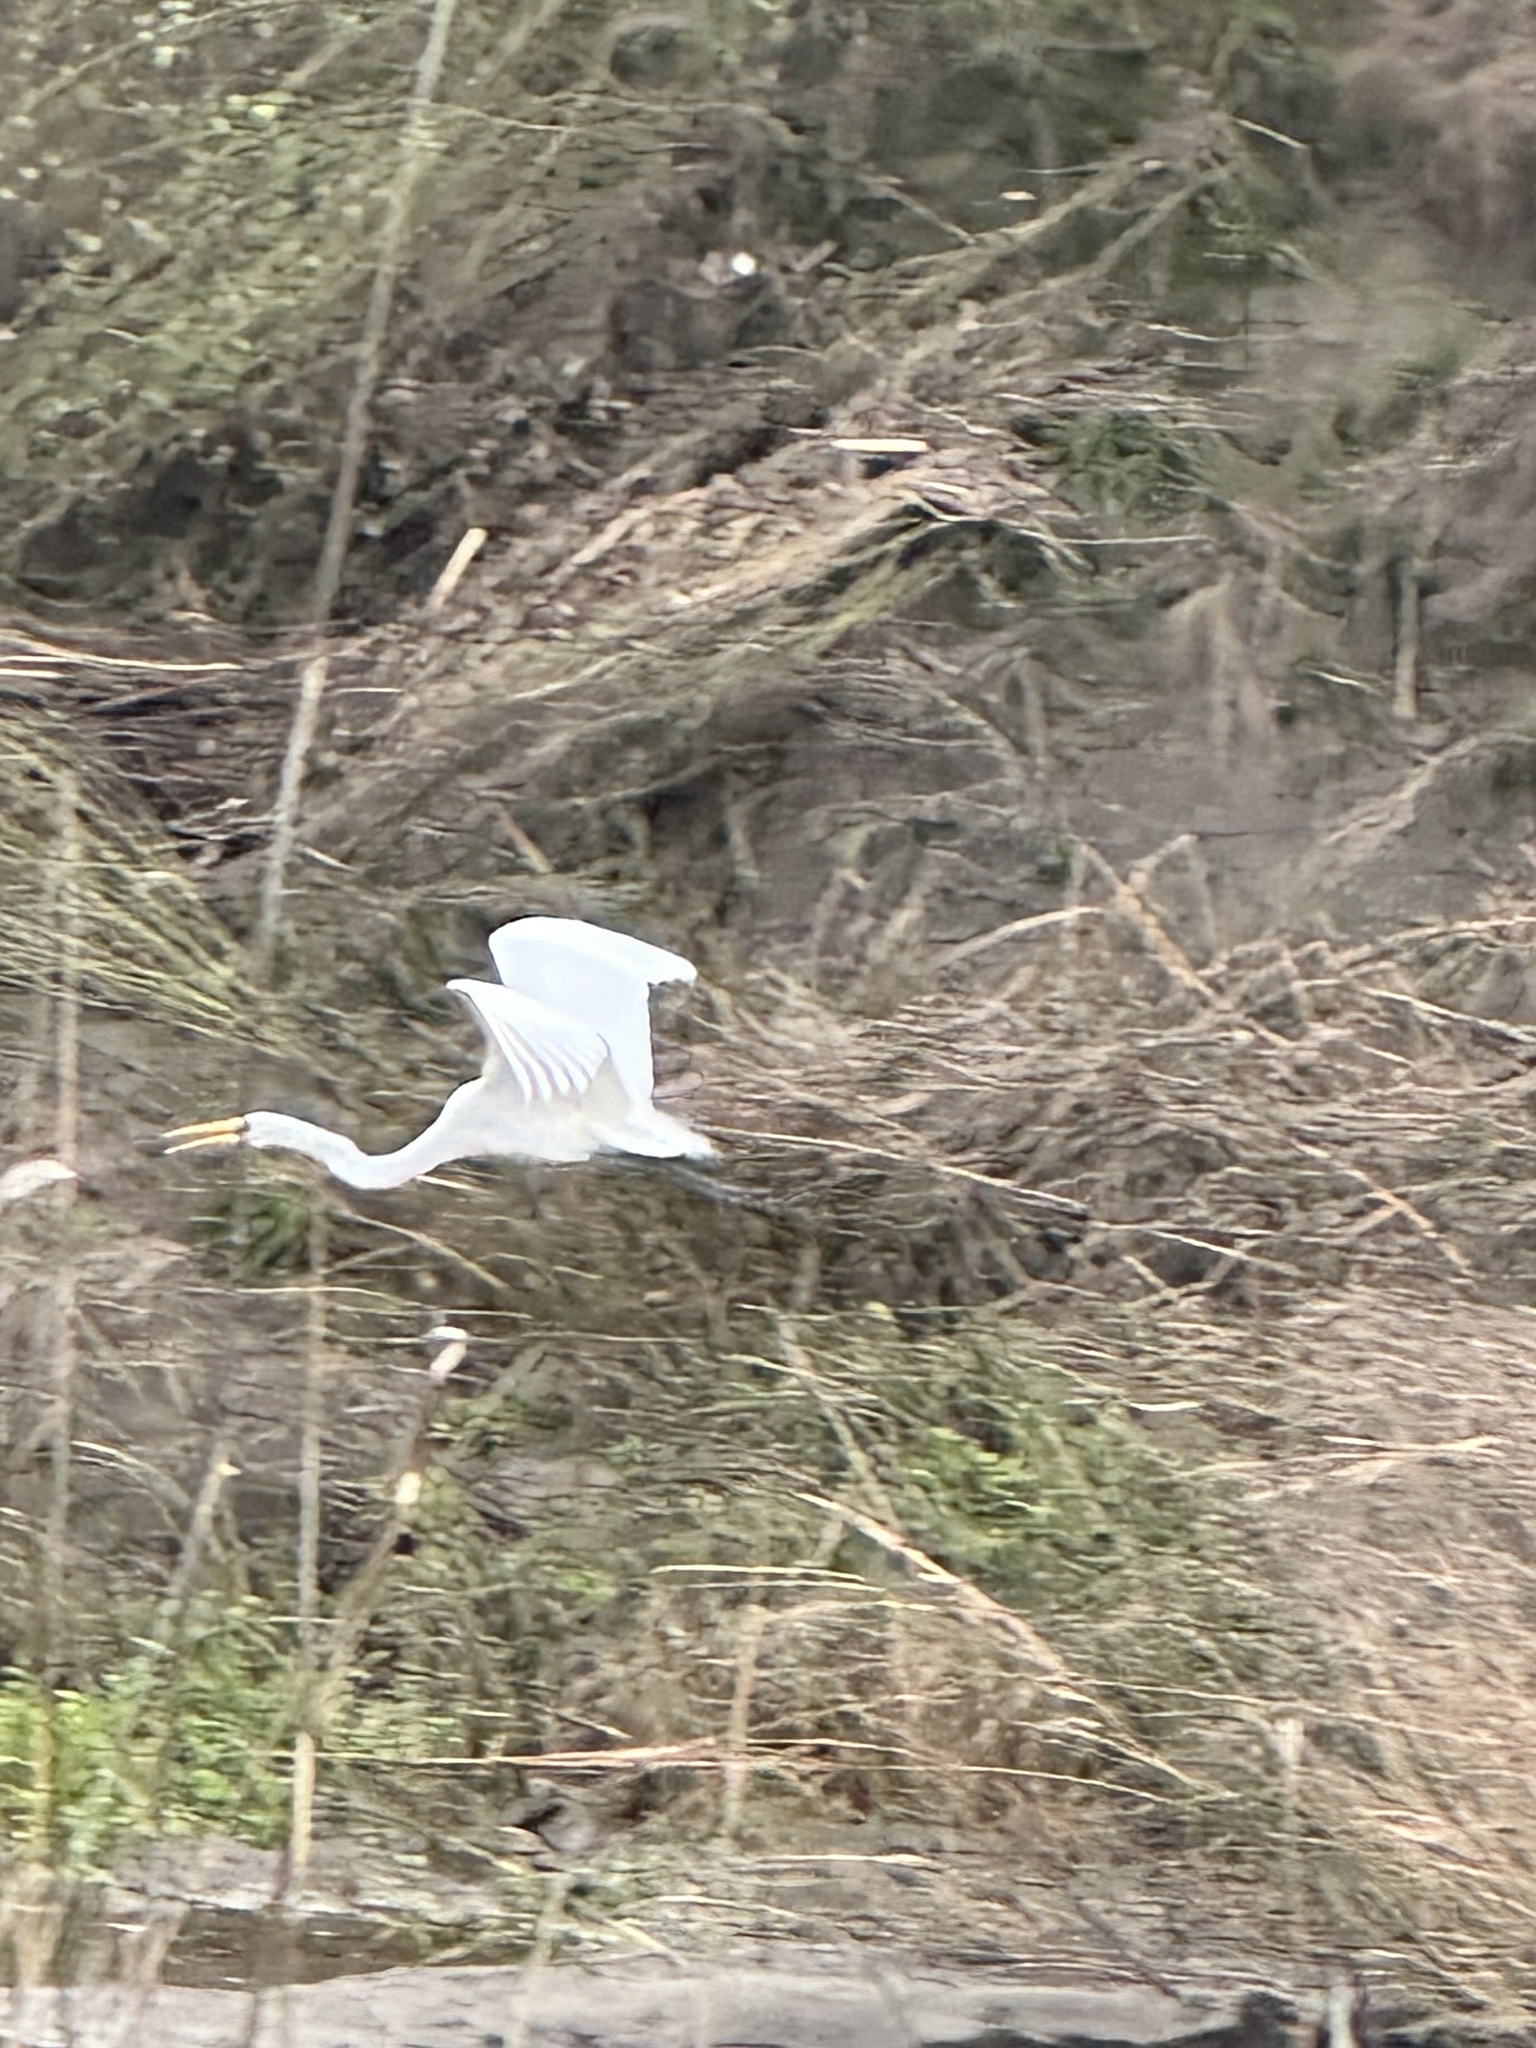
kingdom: Animalia
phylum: Chordata
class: Aves
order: Pelecaniformes
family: Ardeidae
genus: Ardea
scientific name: Ardea alba
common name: Great egret
